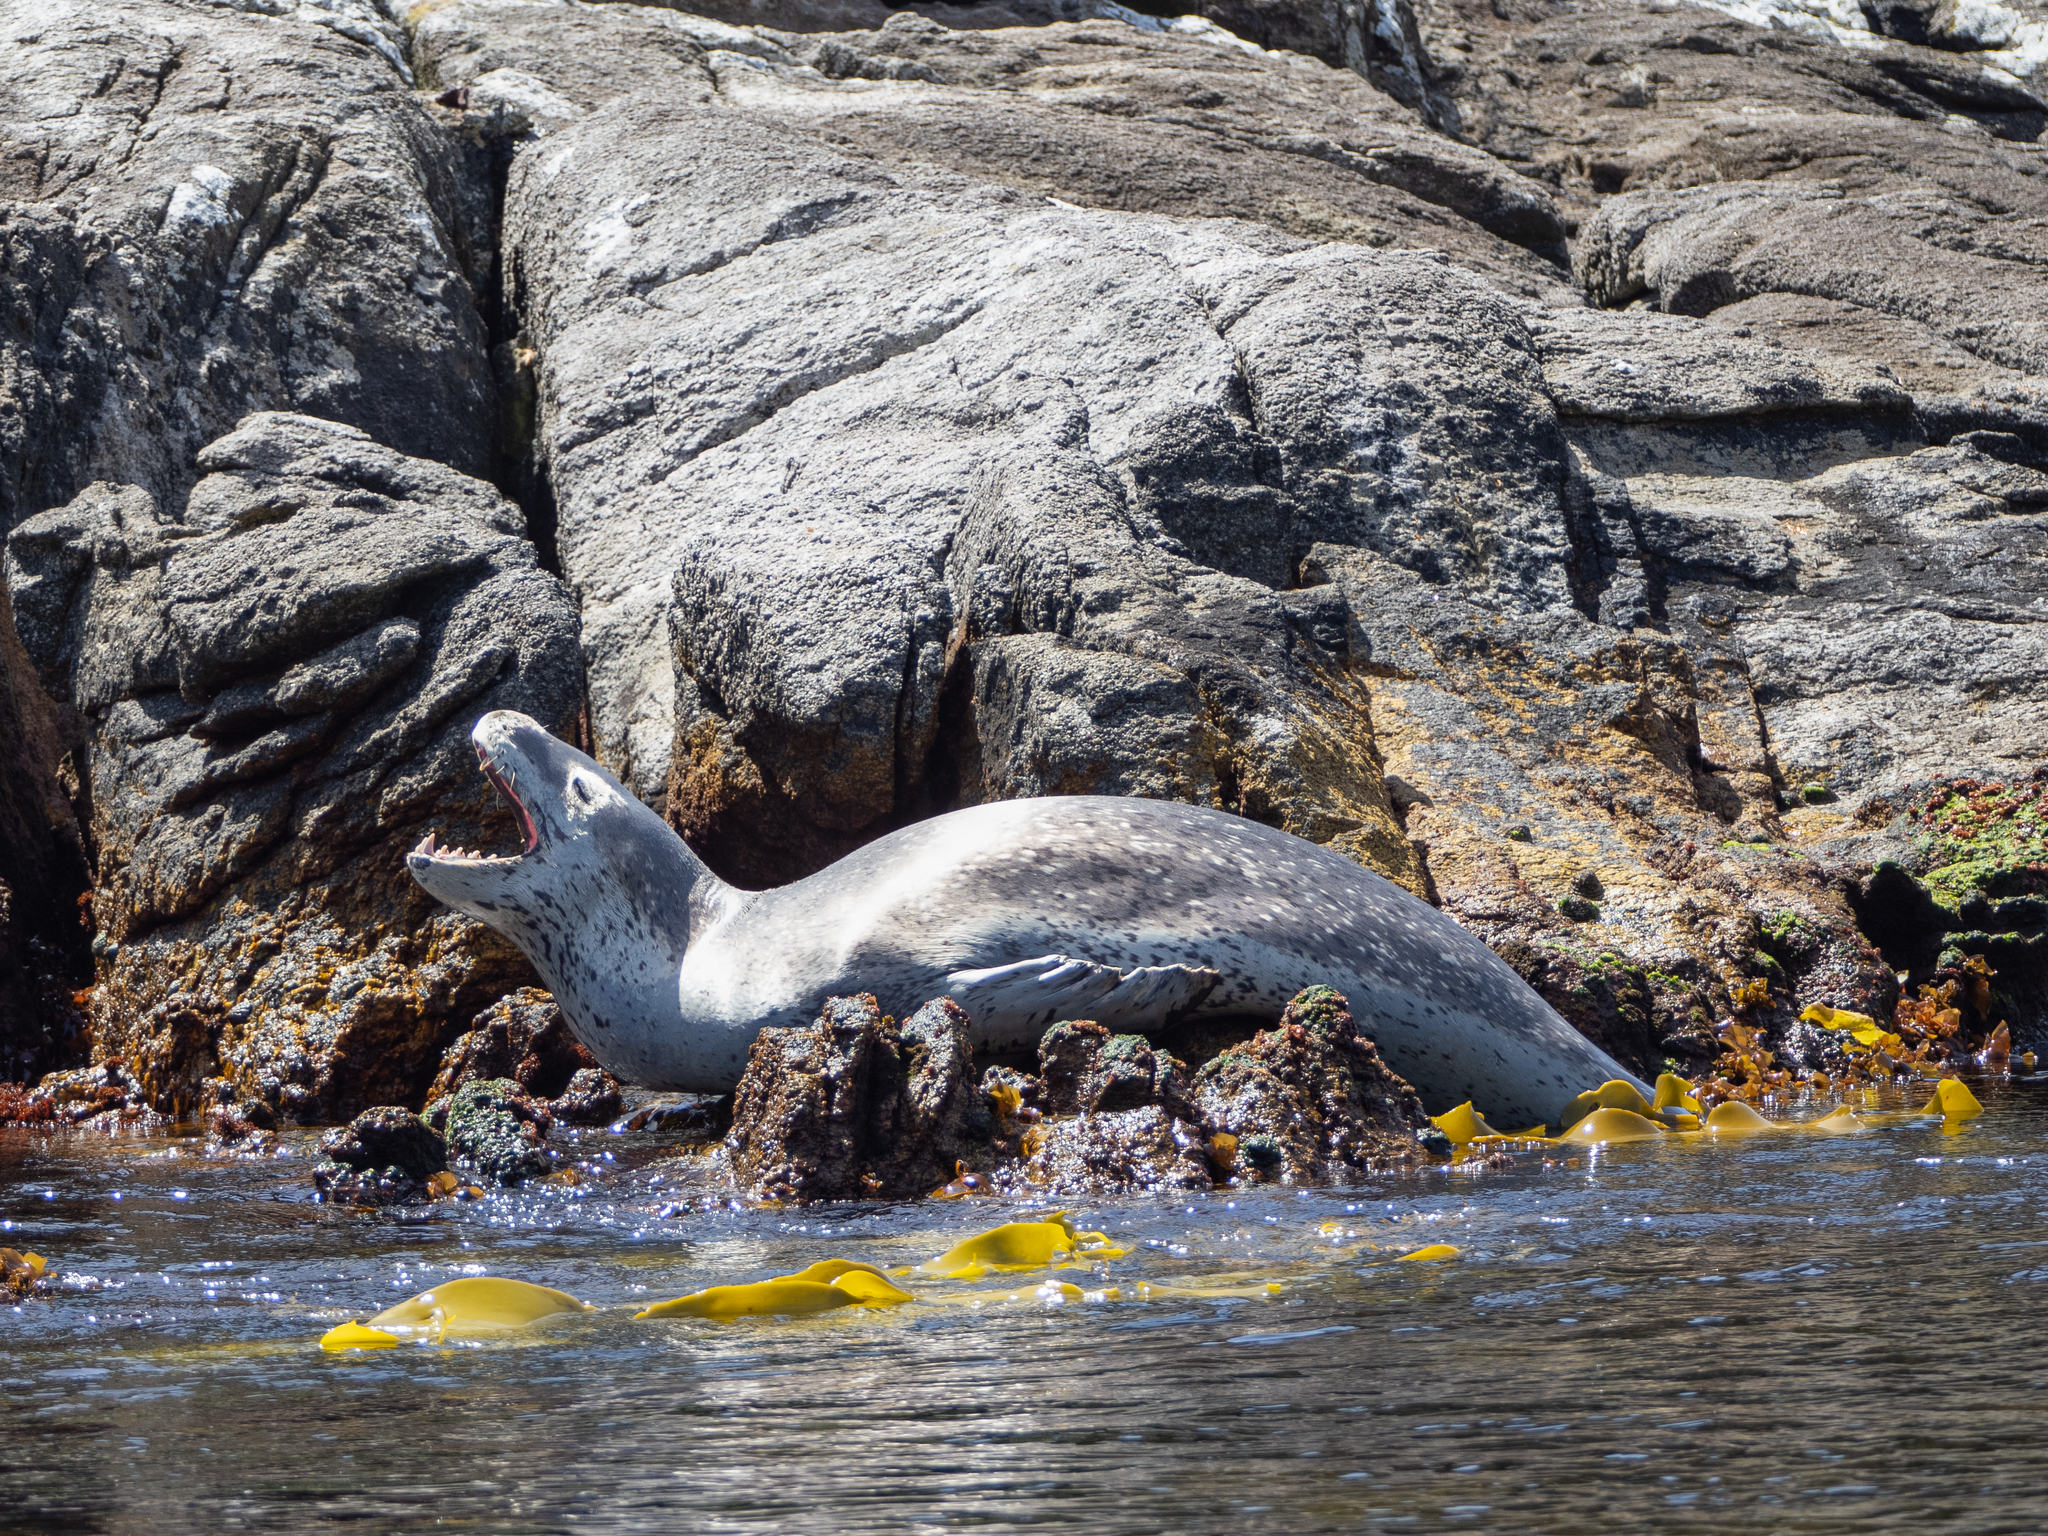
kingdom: Animalia
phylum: Chordata
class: Mammalia
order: Carnivora
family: Phocidae
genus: Hydrurga
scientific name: Hydrurga leptonyx
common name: Leopard seal
